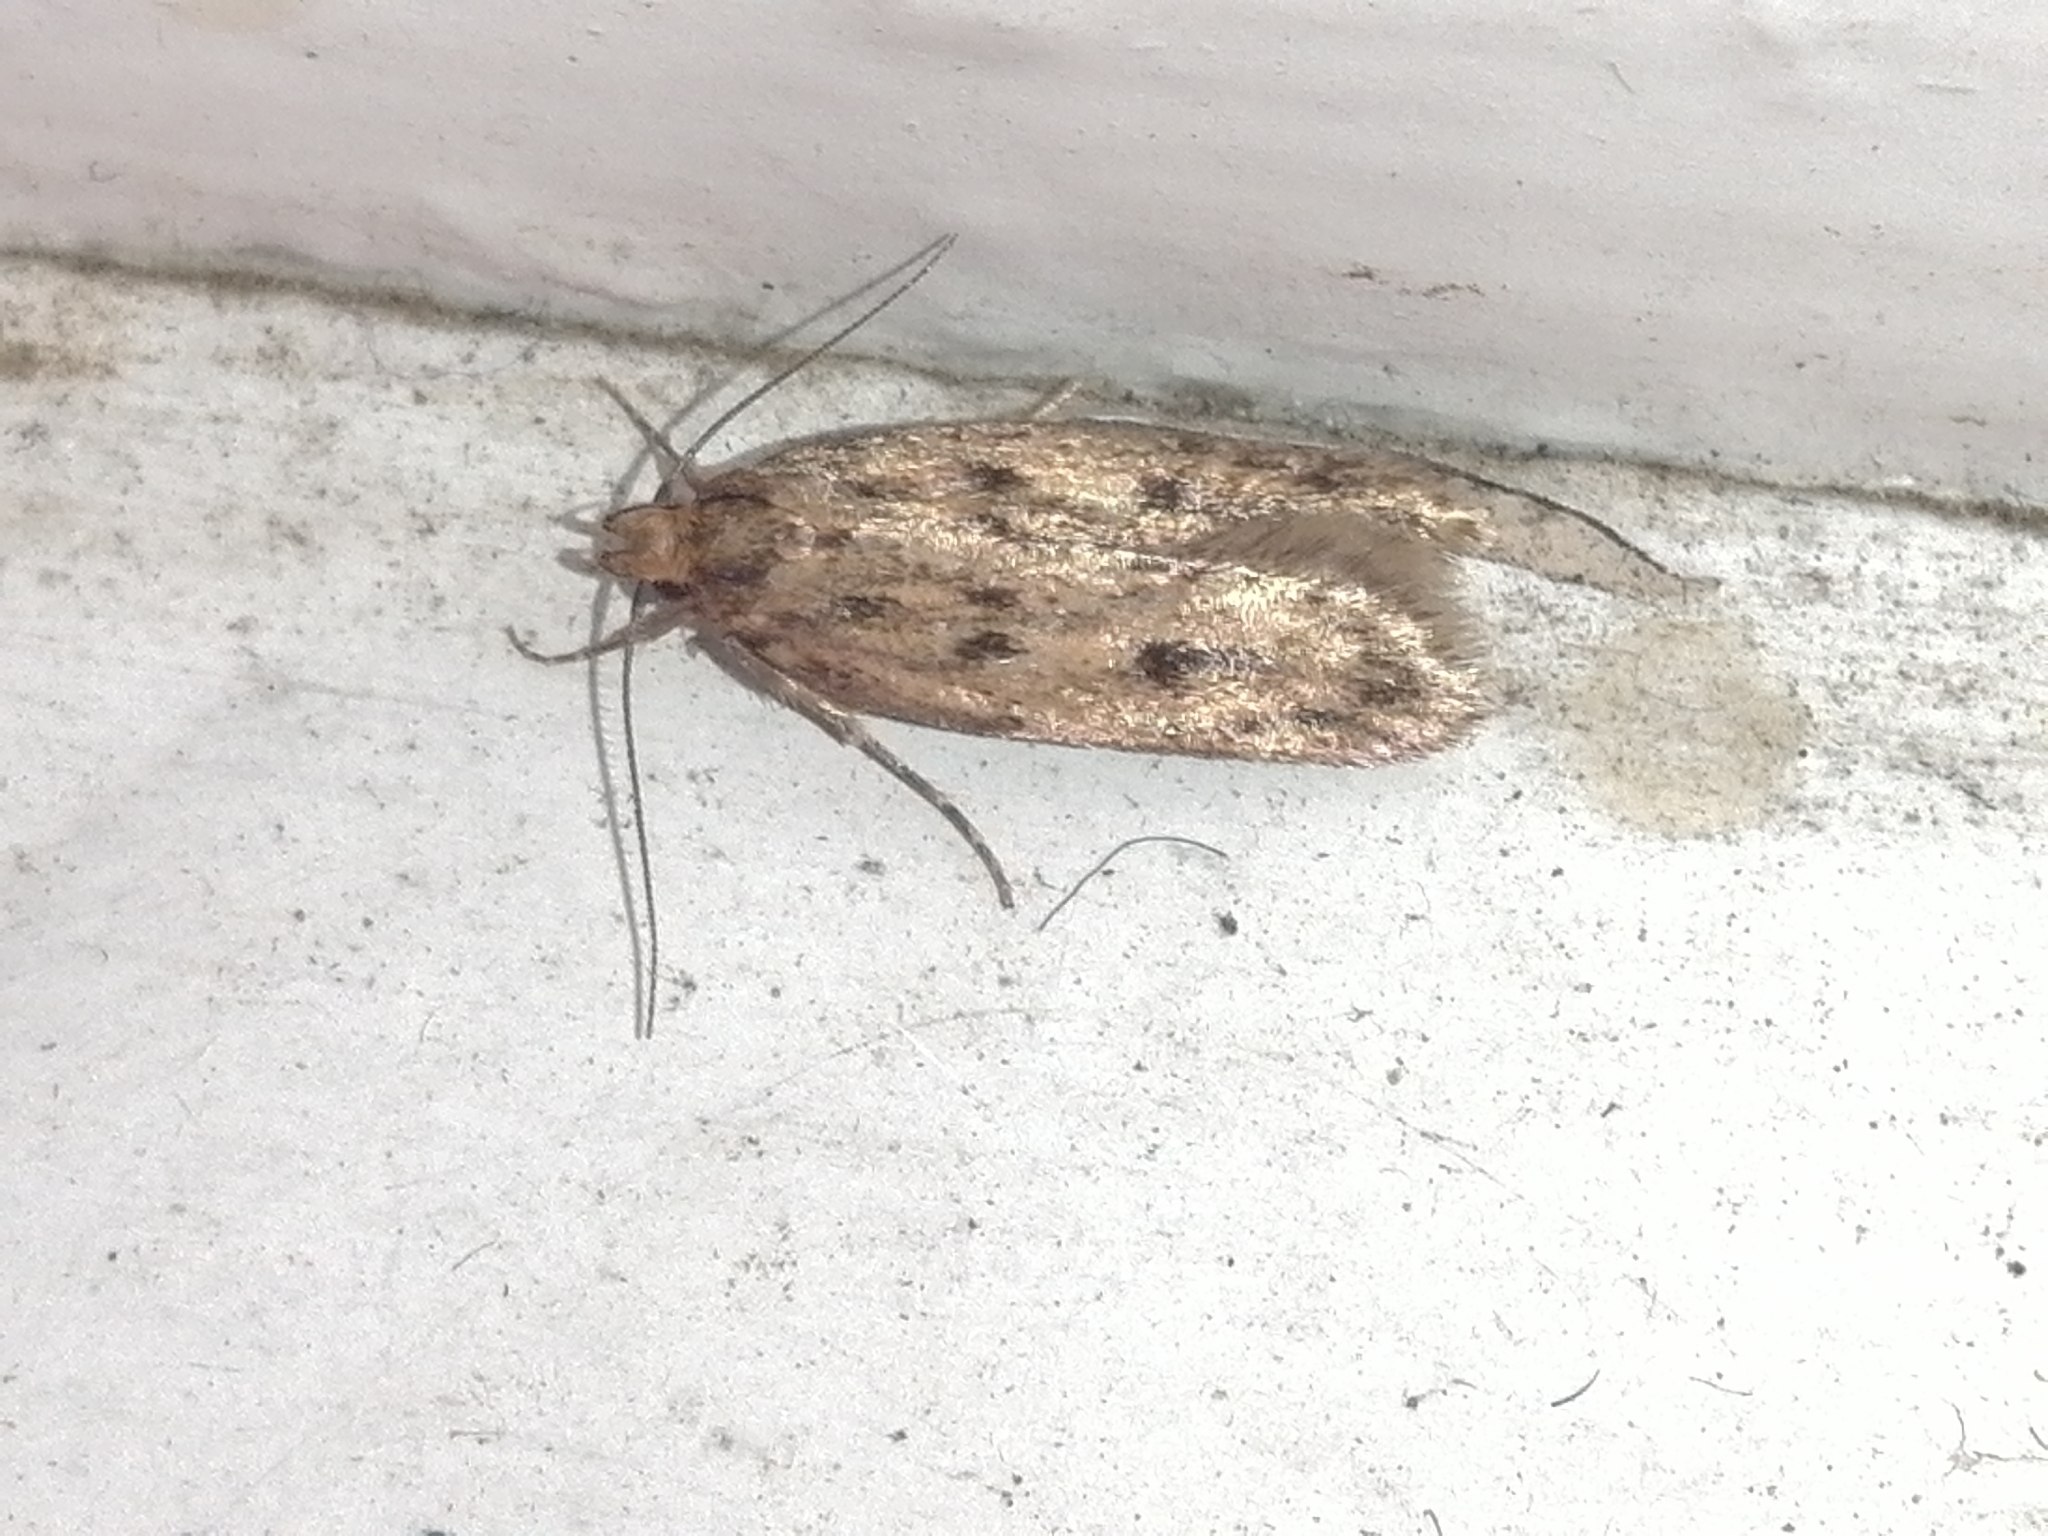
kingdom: Animalia
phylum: Arthropoda
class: Insecta
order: Lepidoptera
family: Oecophoridae
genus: Hofmannophila
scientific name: Hofmannophila pseudospretella
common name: Brown house moth
